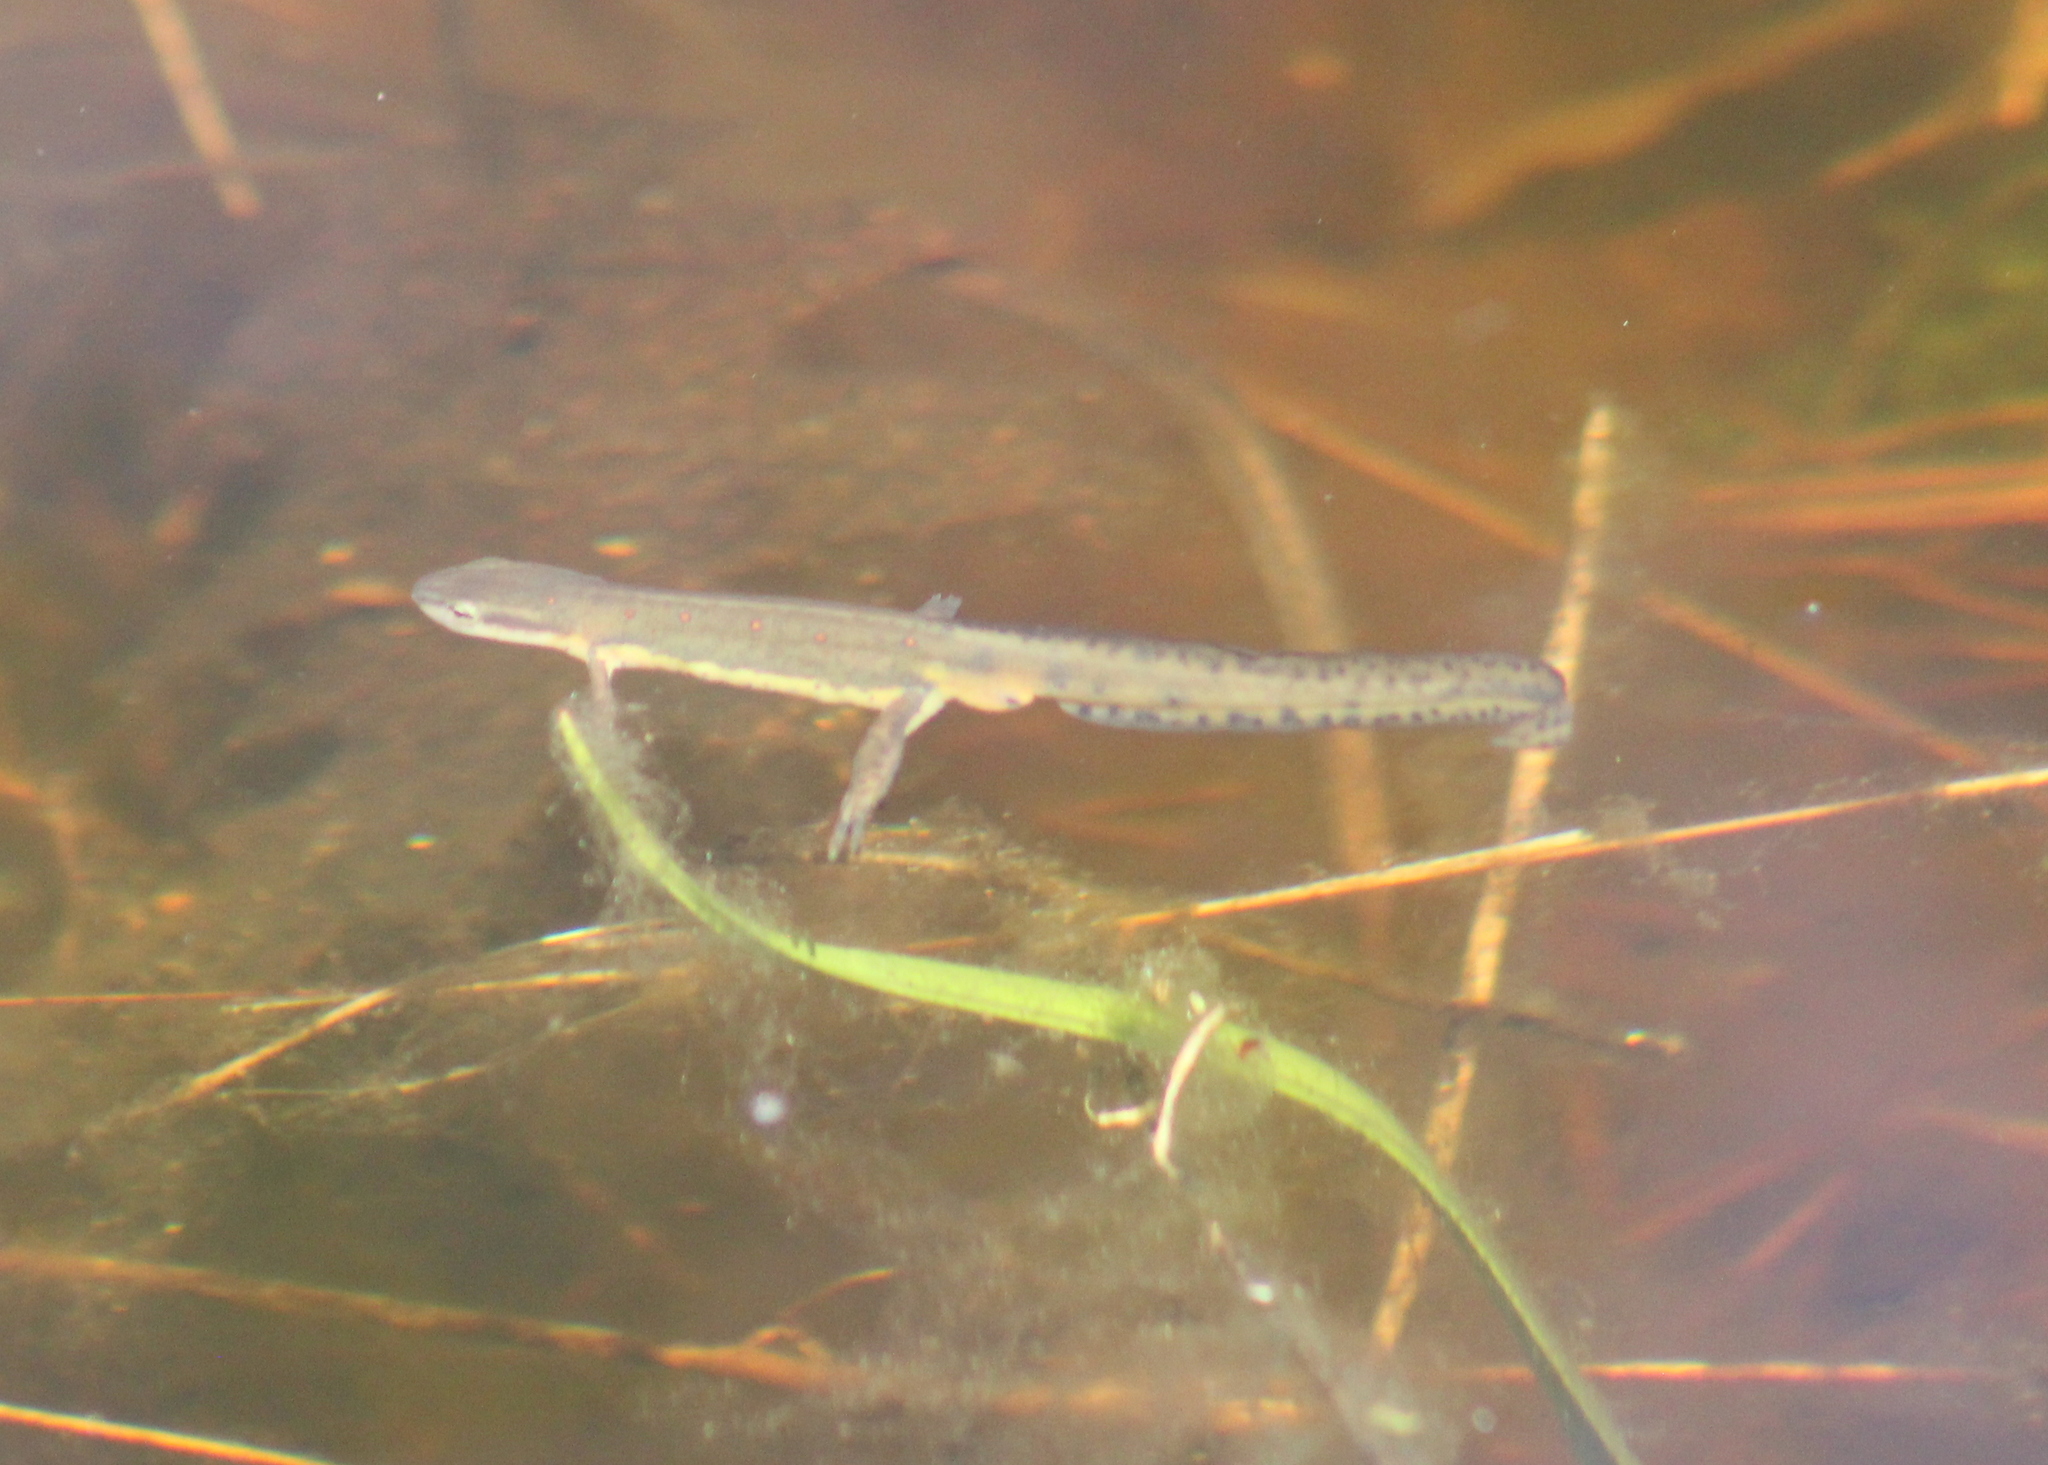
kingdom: Animalia
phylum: Chordata
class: Amphibia
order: Caudata
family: Salamandridae
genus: Notophthalmus
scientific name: Notophthalmus viridescens
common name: Eastern newt
